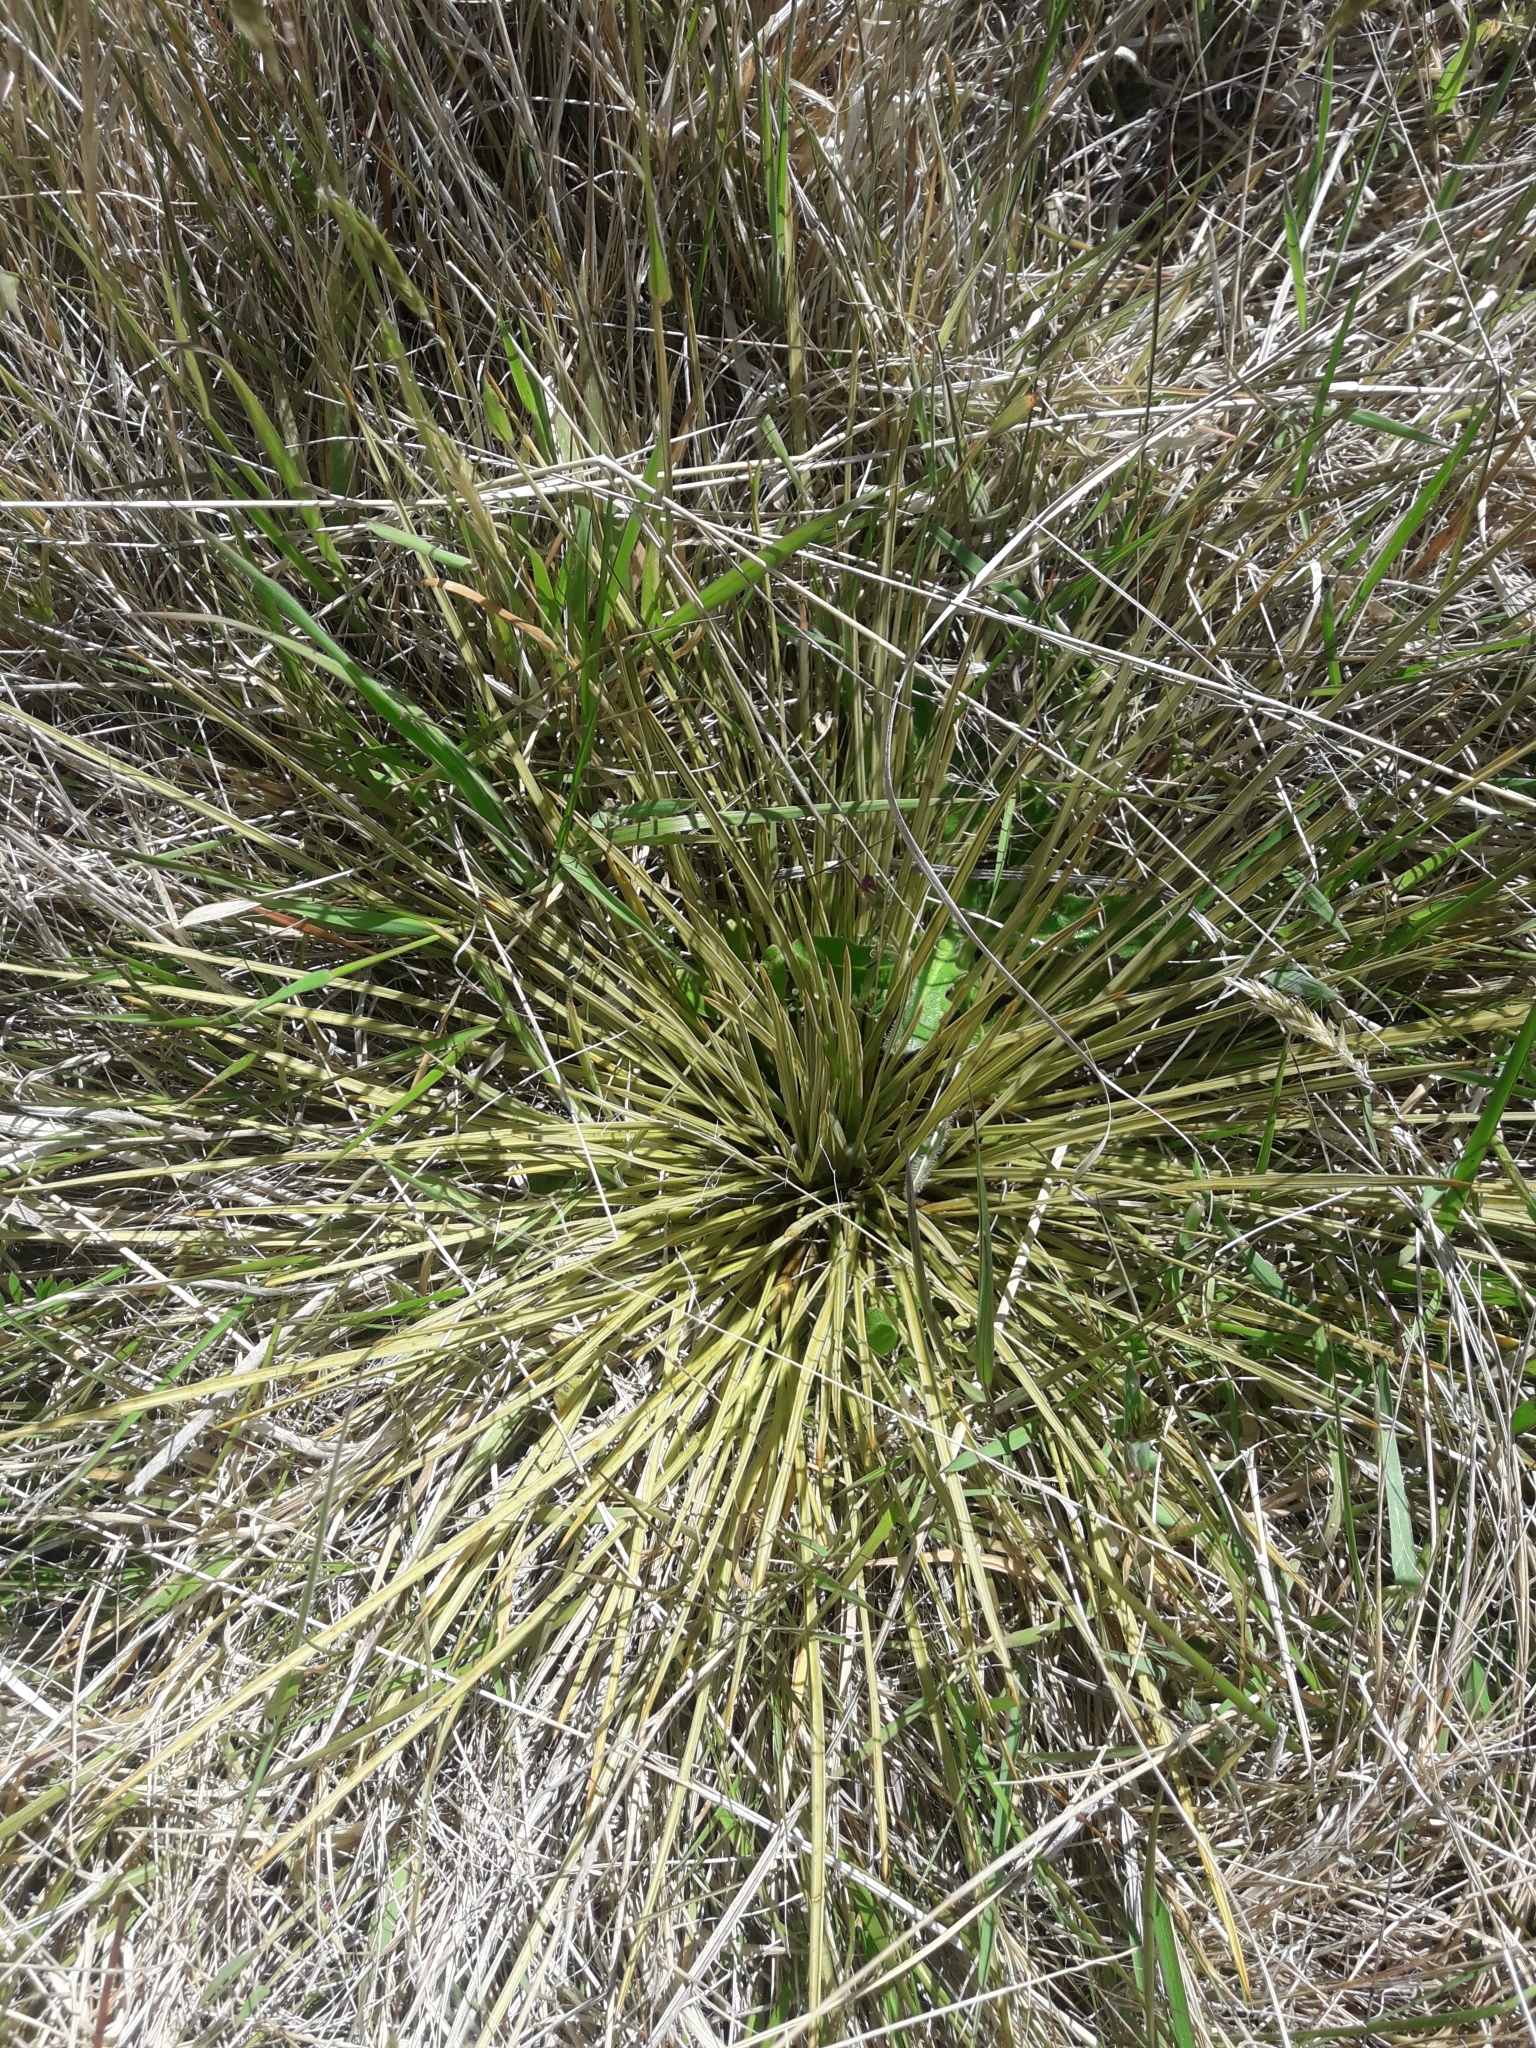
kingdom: Plantae
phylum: Tracheophyta
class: Magnoliopsida
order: Apiales
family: Apiaceae
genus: Aciphylla
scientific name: Aciphylla subflabellata
